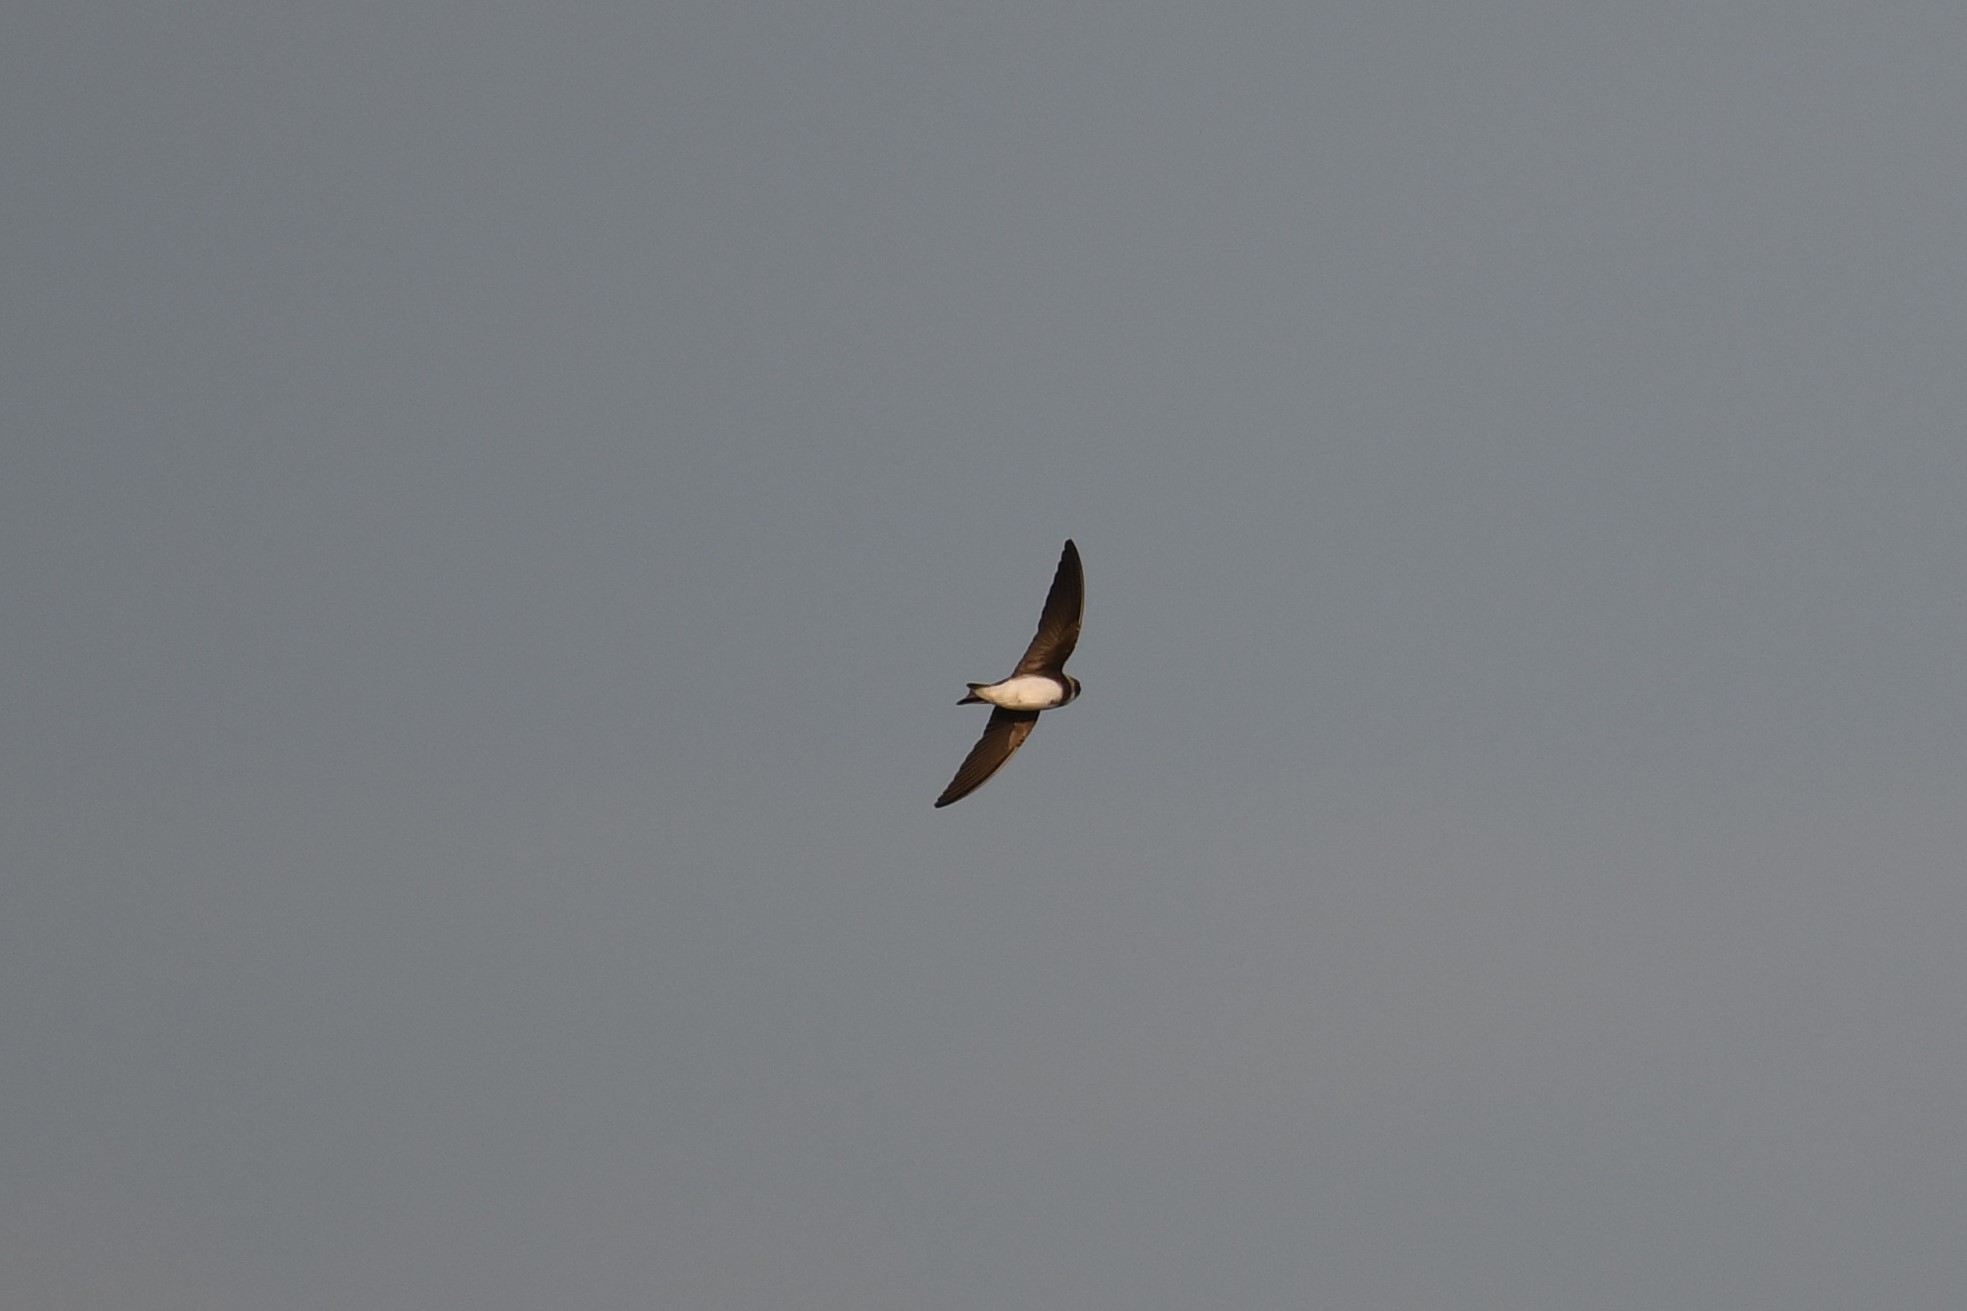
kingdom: Animalia
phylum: Chordata
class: Aves
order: Passeriformes
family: Hirundinidae
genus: Riparia
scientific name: Riparia riparia
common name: Sand martin
